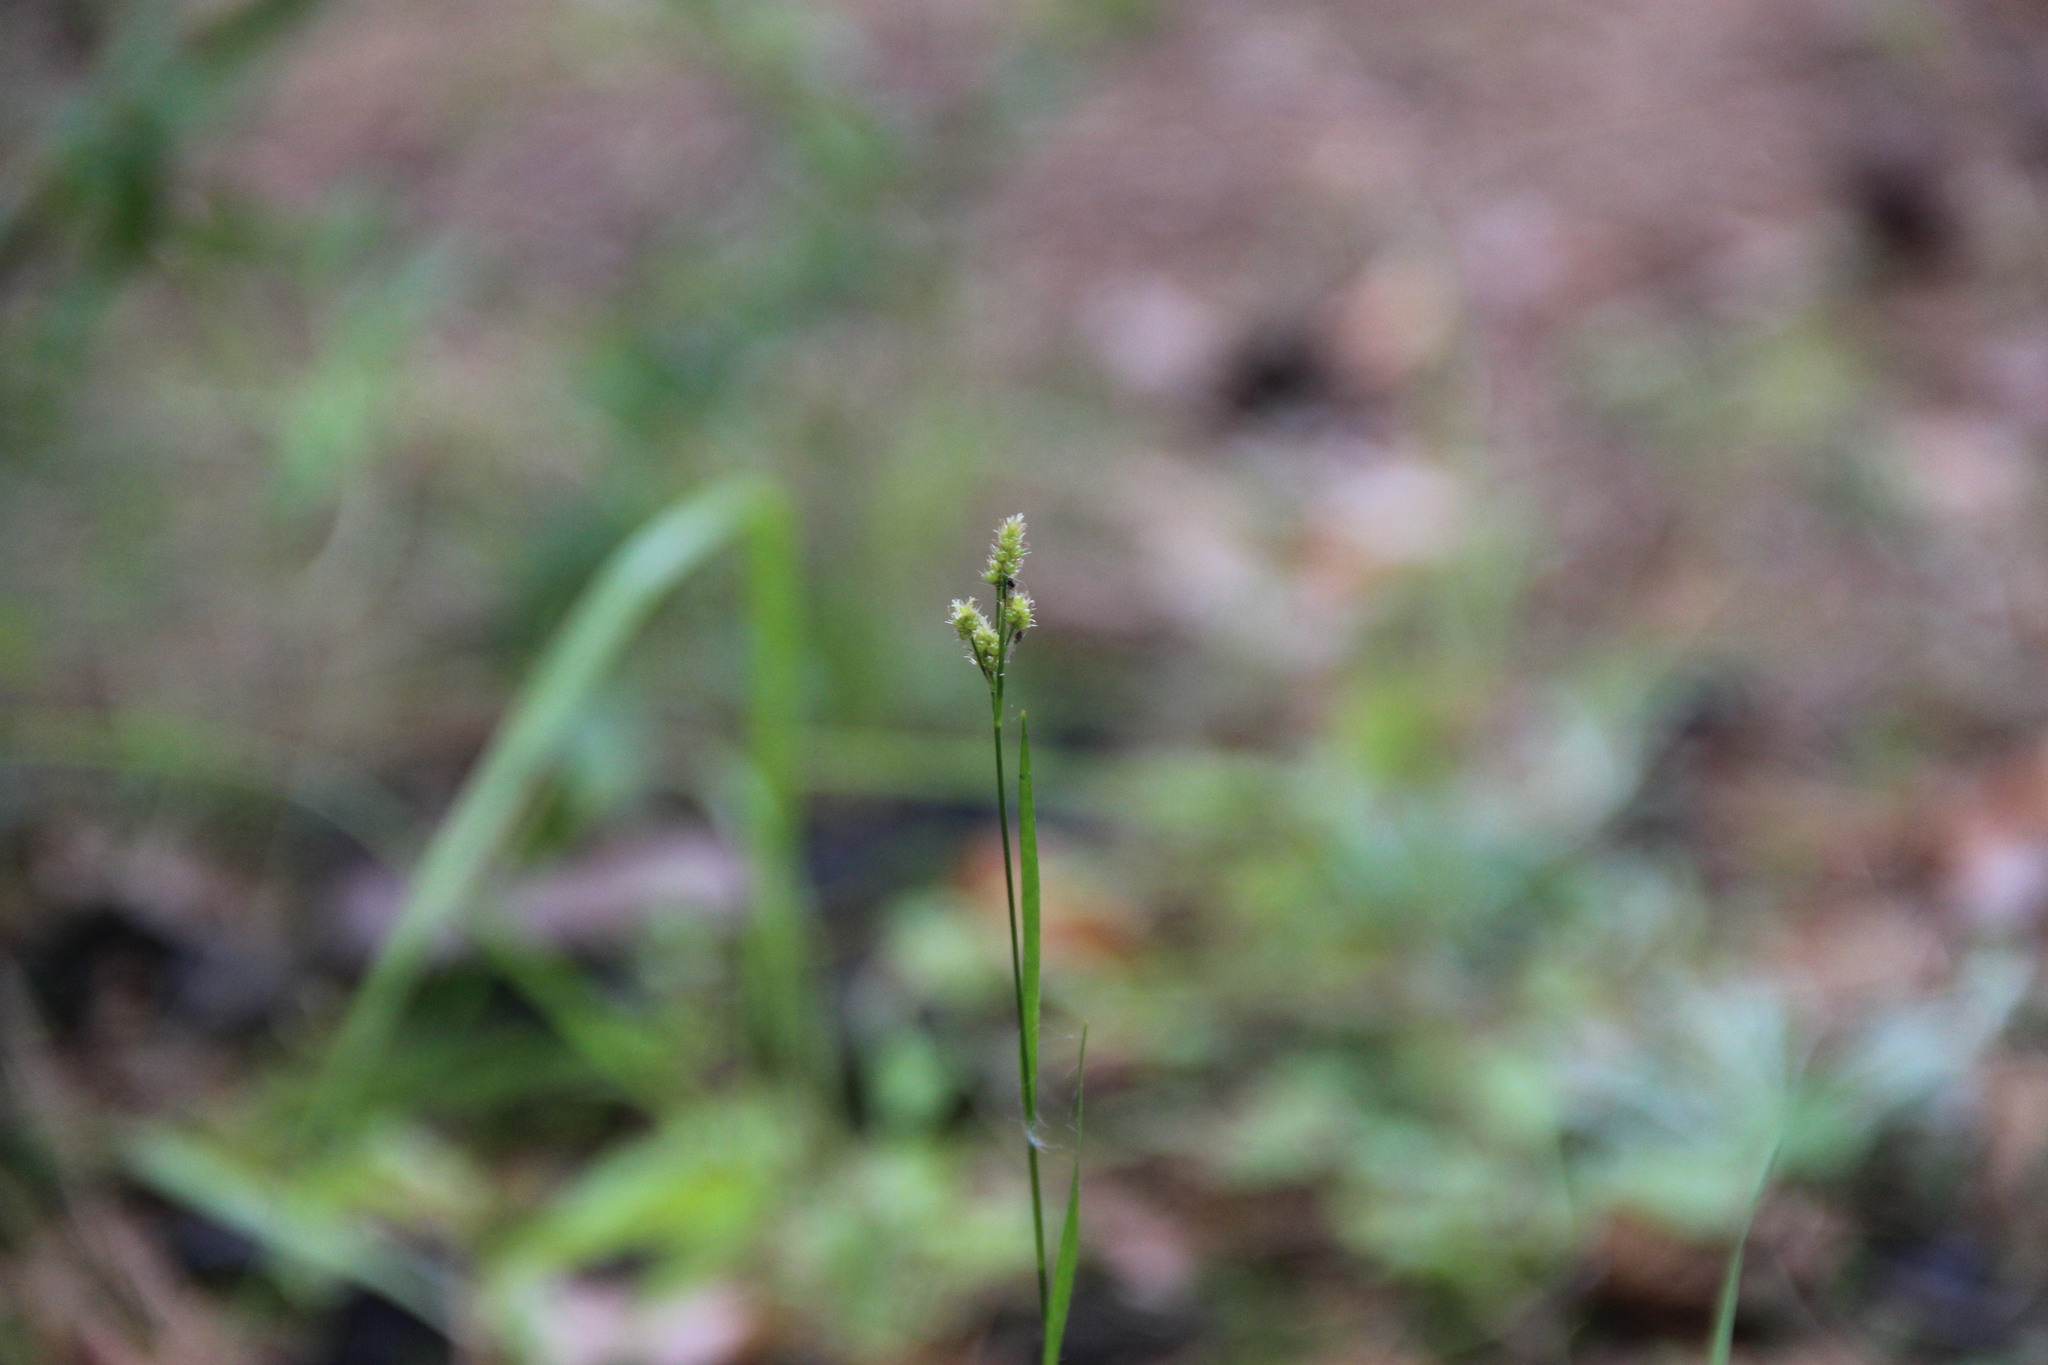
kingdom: Plantae
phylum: Tracheophyta
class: Liliopsida
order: Poales
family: Juncaceae
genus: Luzula
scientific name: Luzula pallescens
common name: Fen wood-rush
